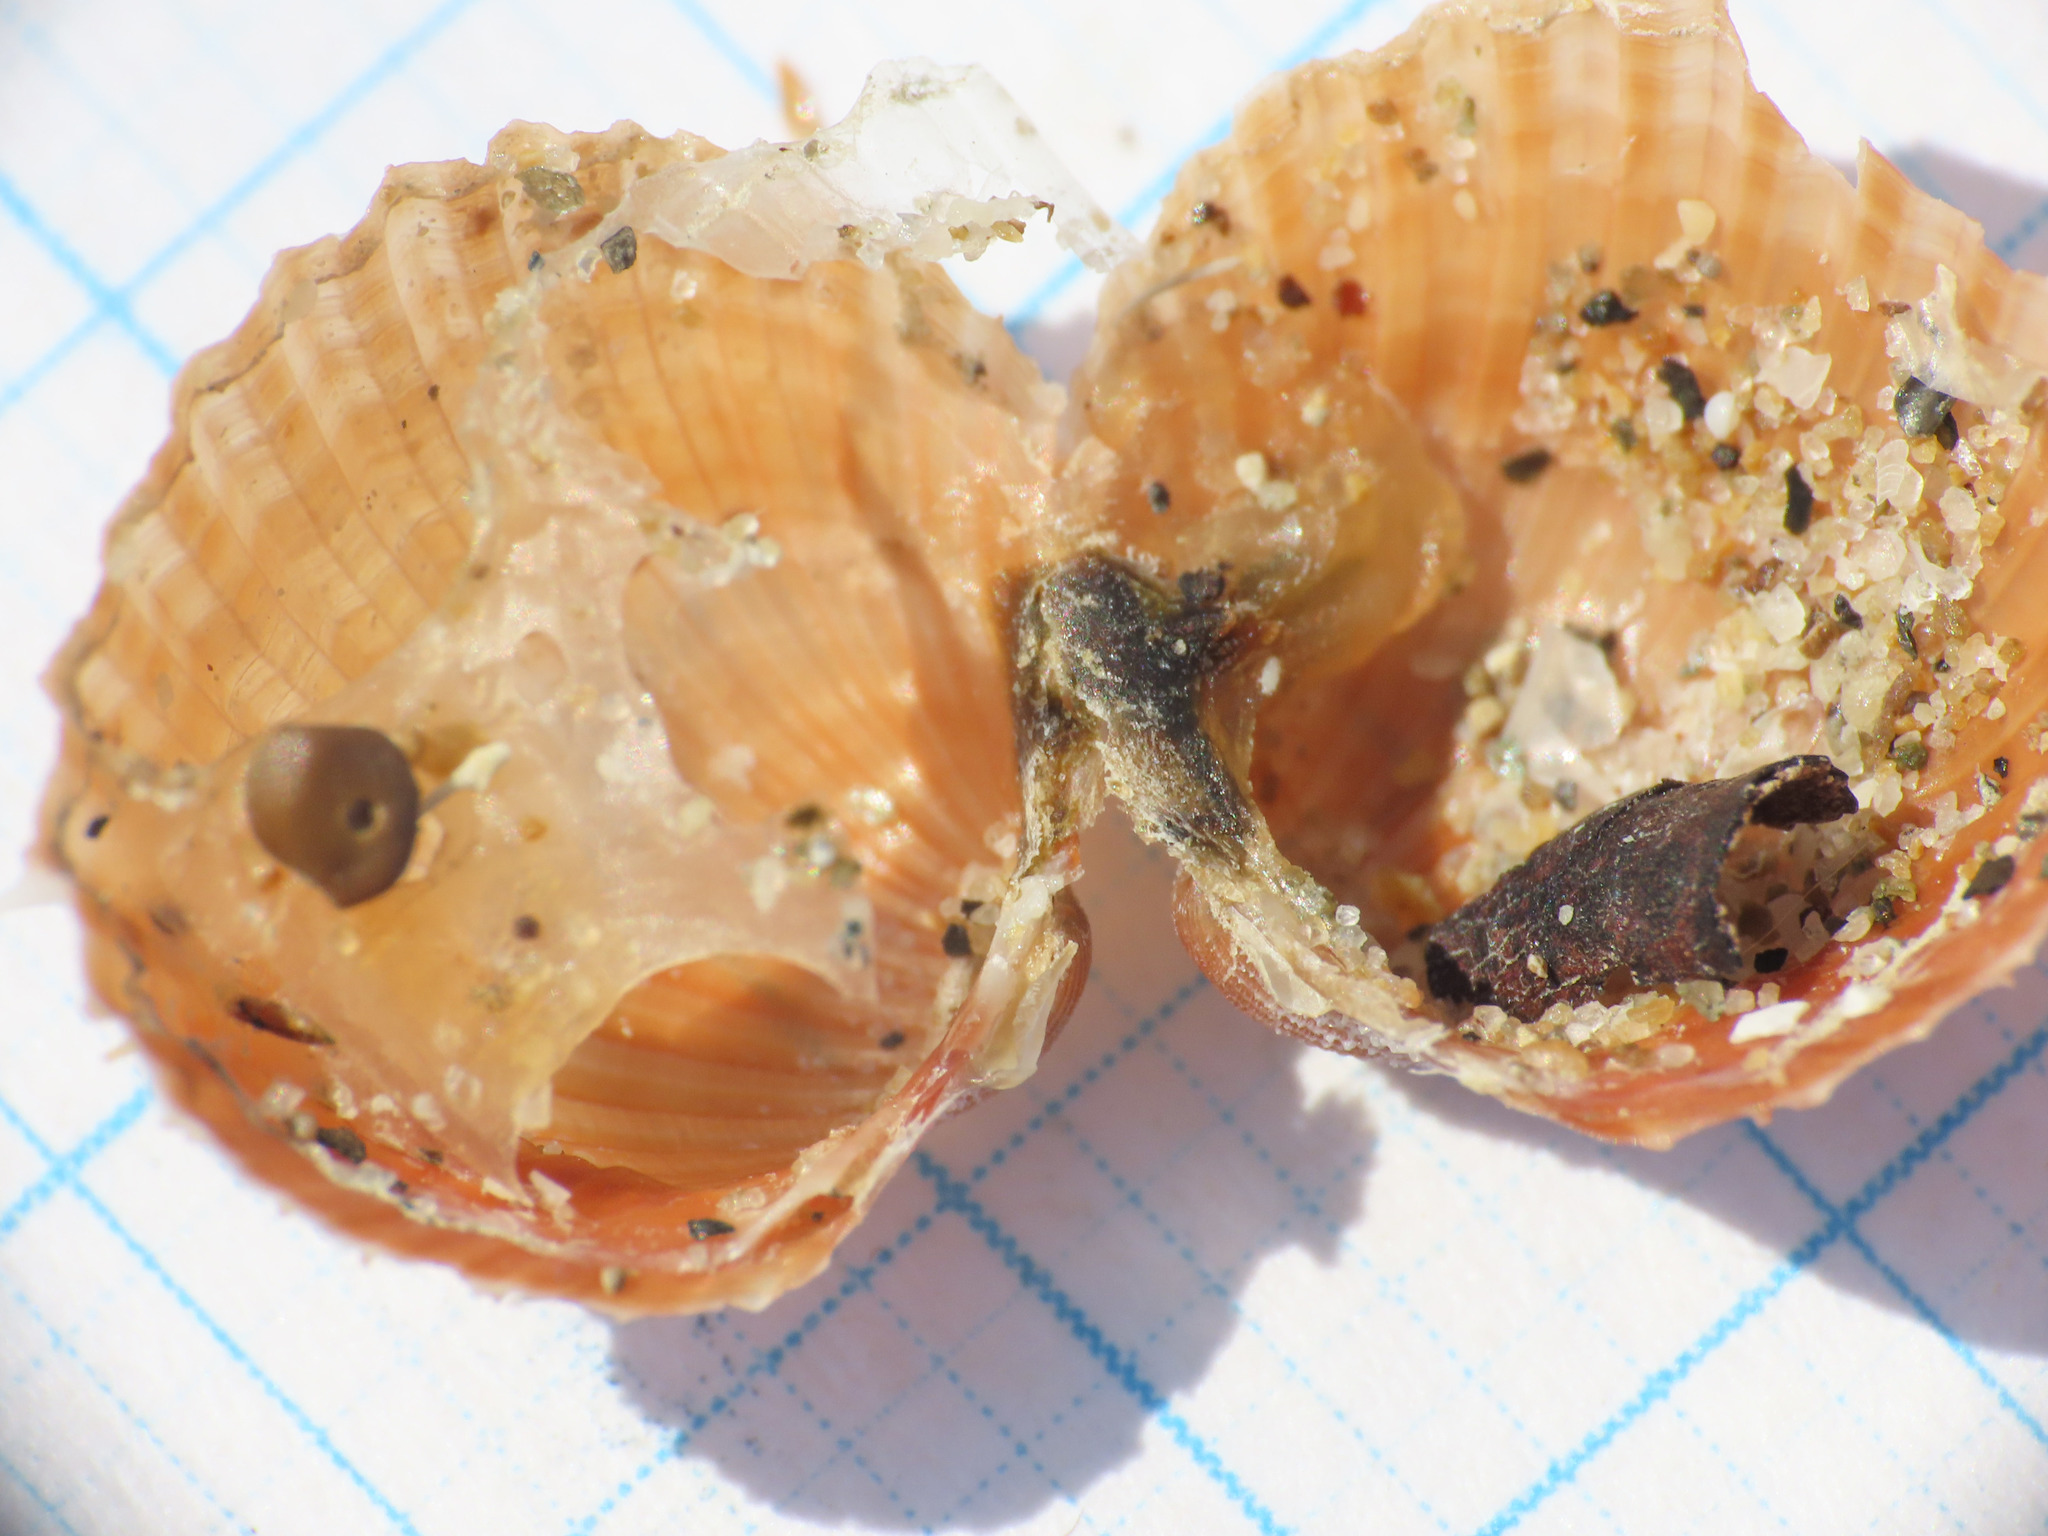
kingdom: Animalia
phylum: Mollusca
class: Bivalvia
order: Cardiida
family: Cardiidae
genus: Acanthocardia
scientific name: Acanthocardia paucicostata
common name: Poorly ribbed cockle
